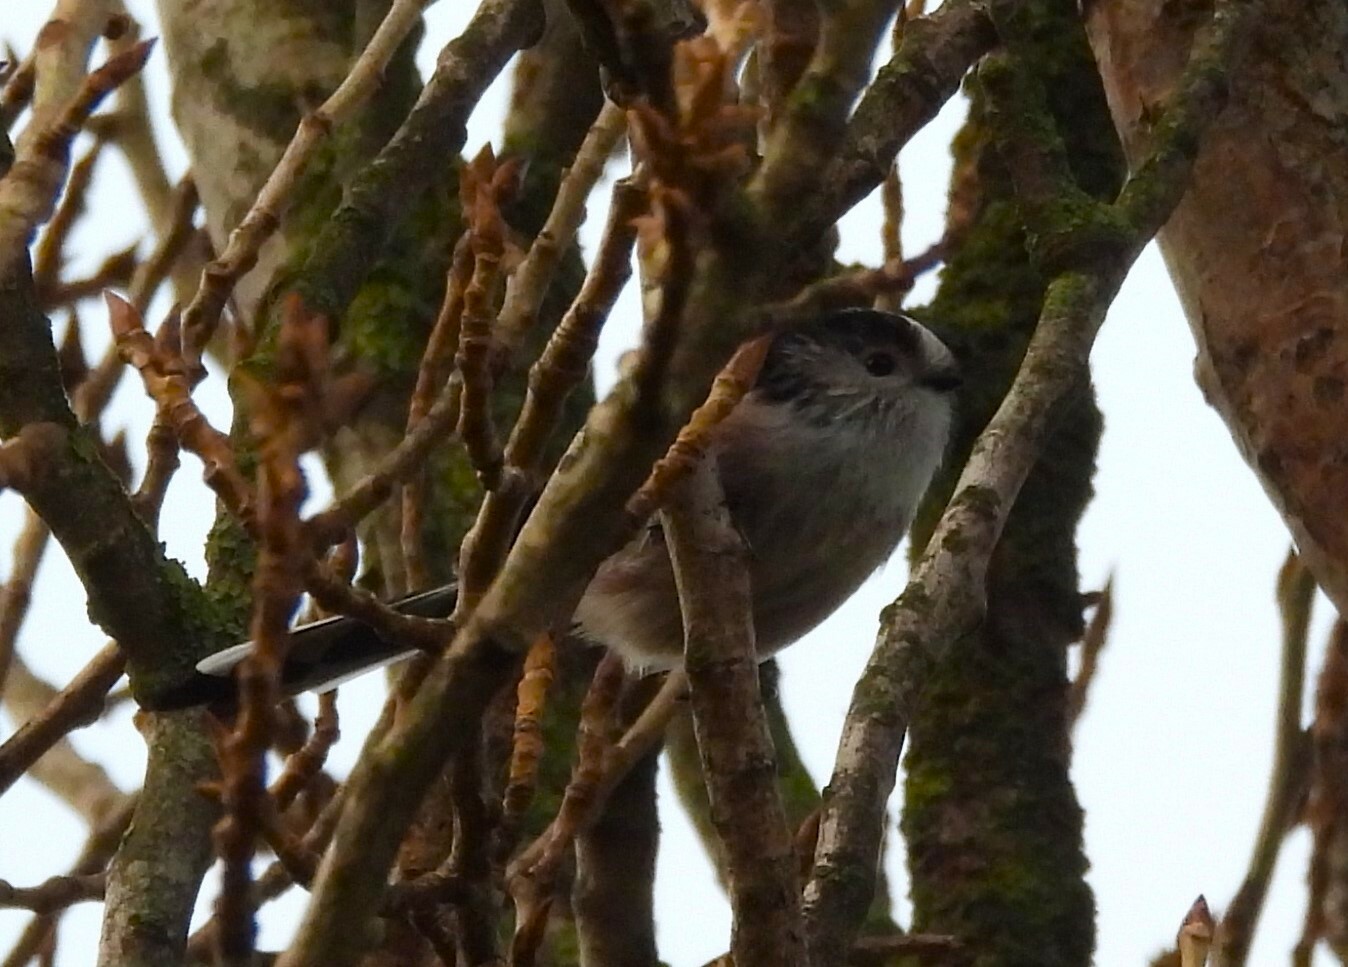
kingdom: Animalia
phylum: Chordata
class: Aves
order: Passeriformes
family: Aegithalidae
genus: Aegithalos
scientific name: Aegithalos caudatus
